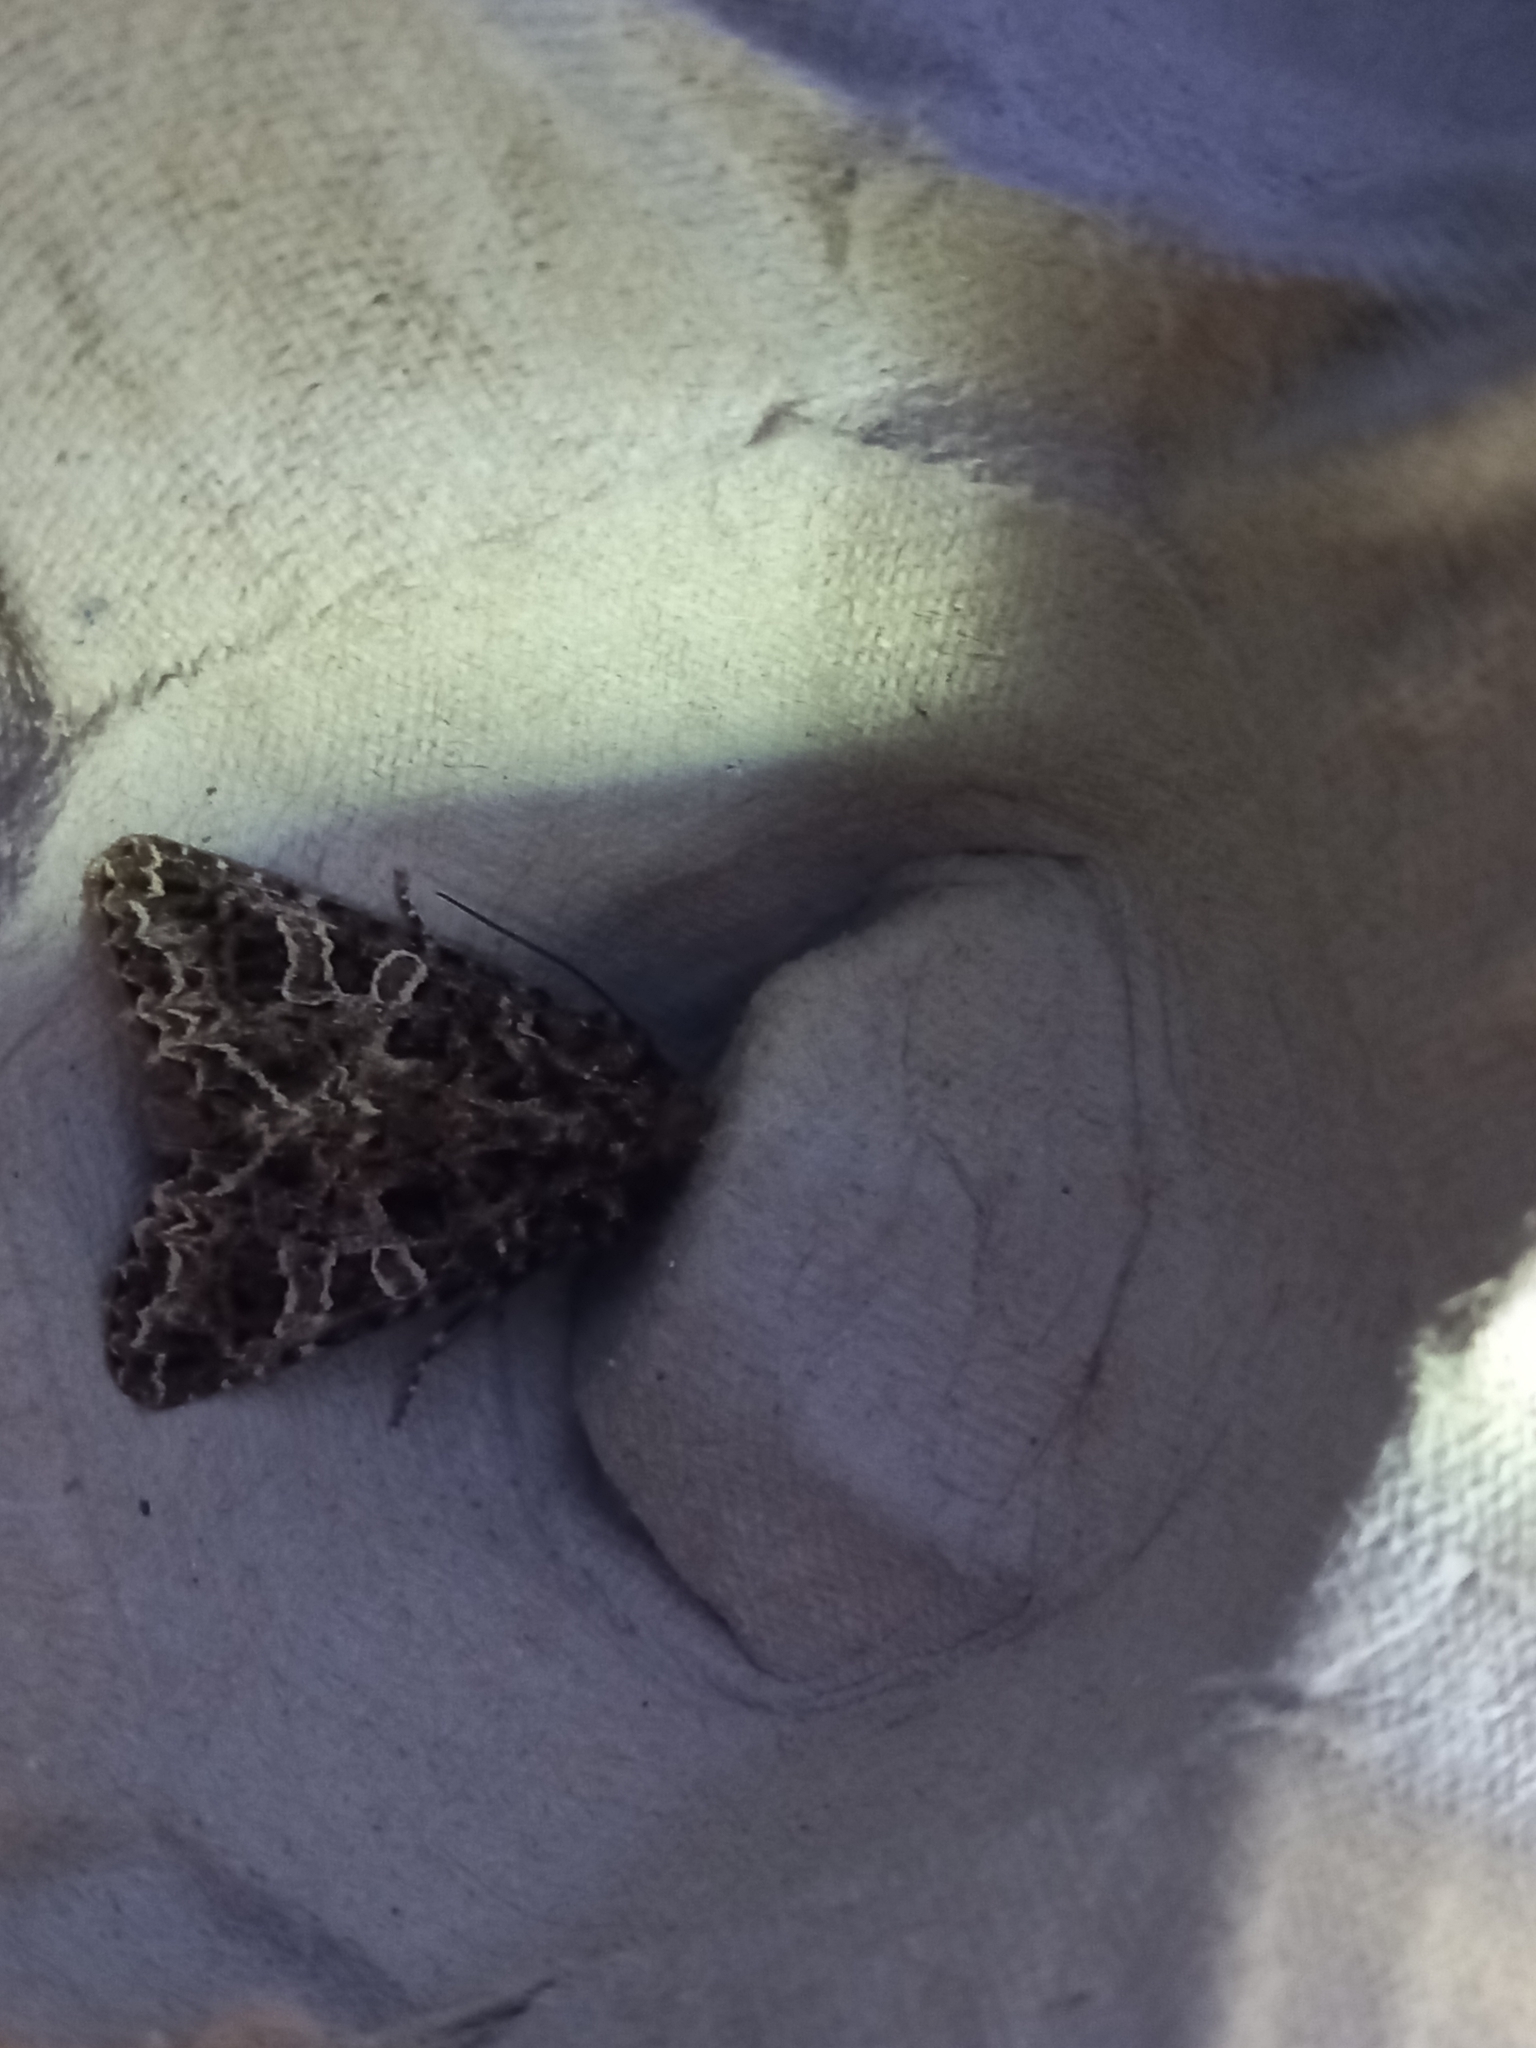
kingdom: Animalia
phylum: Arthropoda
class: Insecta
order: Lepidoptera
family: Noctuidae
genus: Hadena
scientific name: Hadena bicruris
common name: Lychnis
